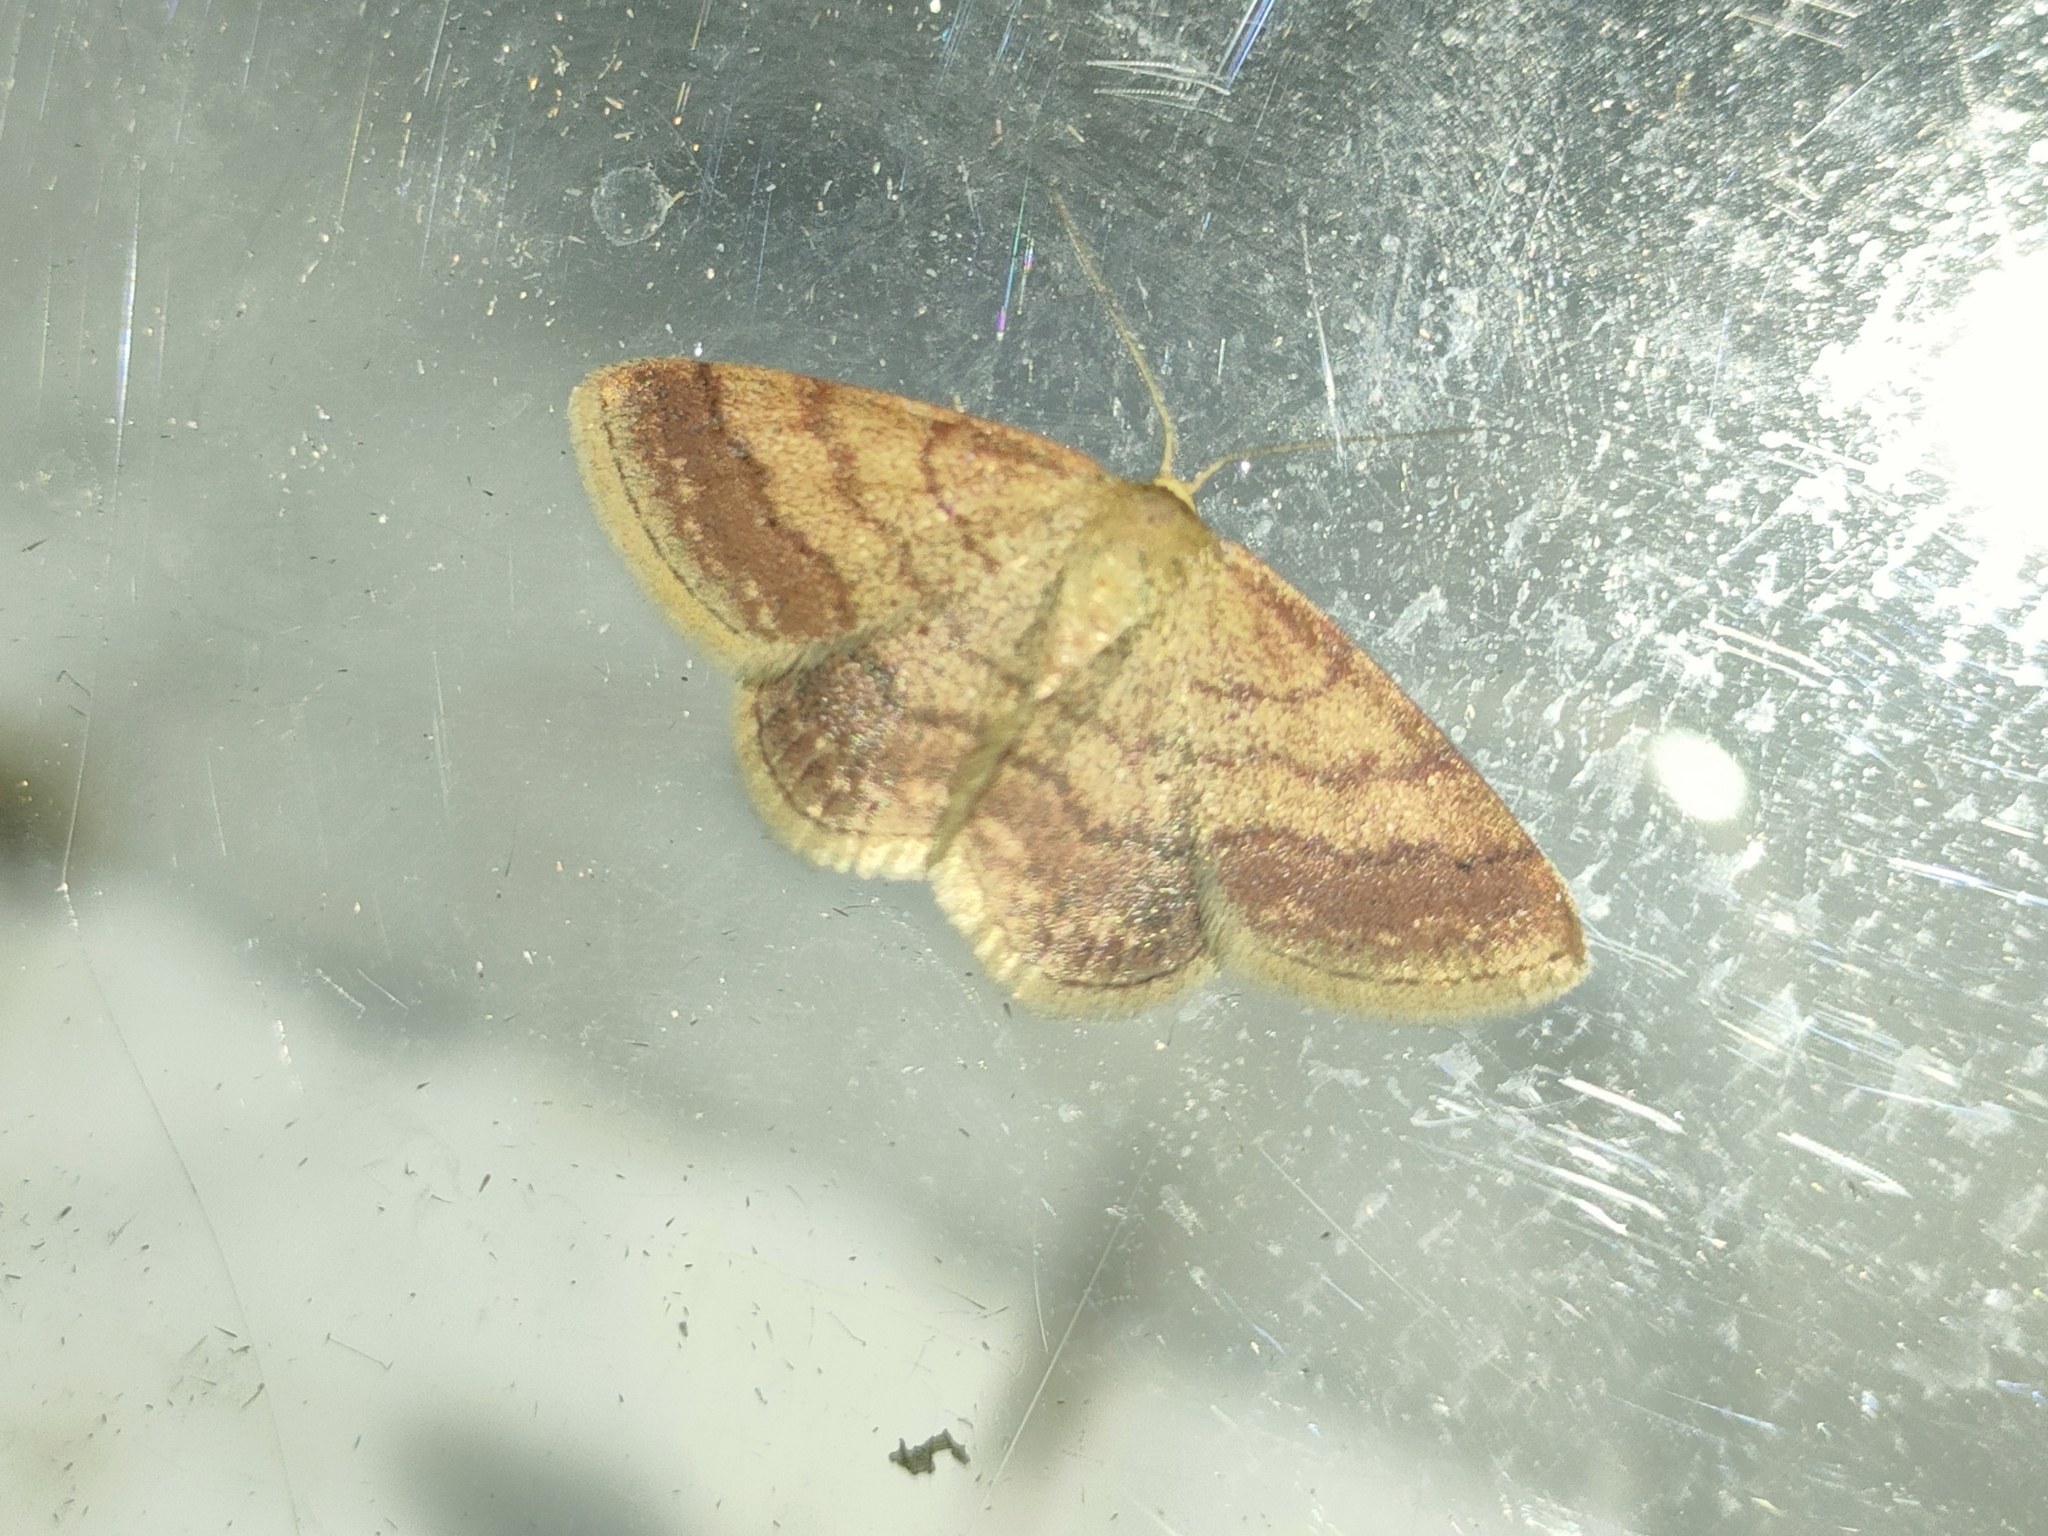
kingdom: Animalia
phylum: Arthropoda
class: Insecta
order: Lepidoptera
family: Geometridae
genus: Scopula
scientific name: Scopula rubiginata
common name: Tawny wave
